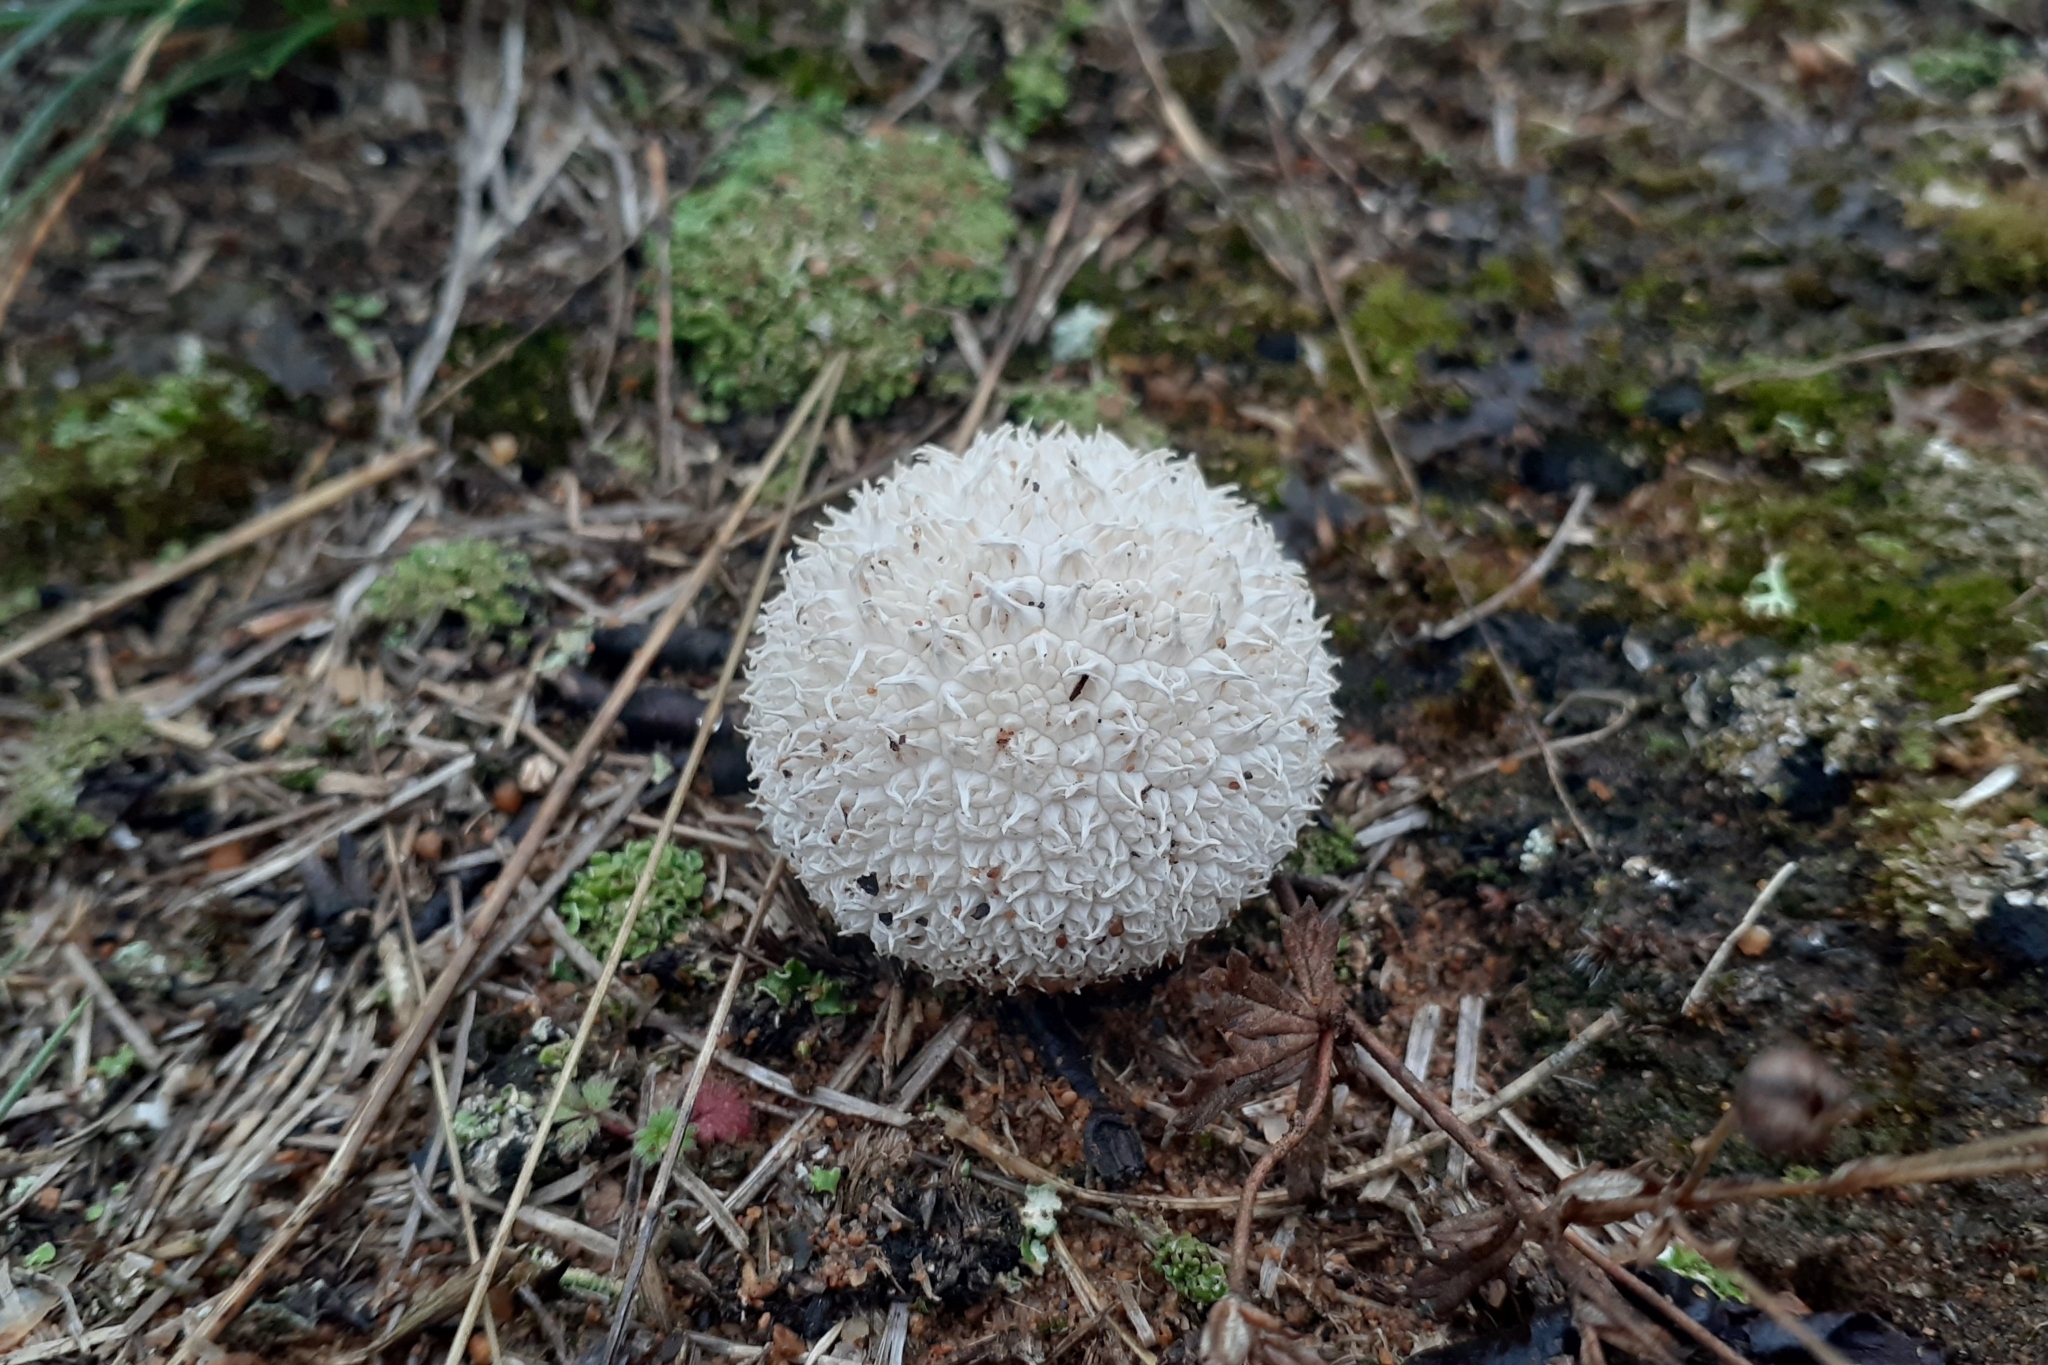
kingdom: Fungi
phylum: Basidiomycota
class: Agaricomycetes
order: Agaricales
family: Agaricaceae
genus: Lycoperdon
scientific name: Lycoperdon marginatum
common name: Peeling puffball
